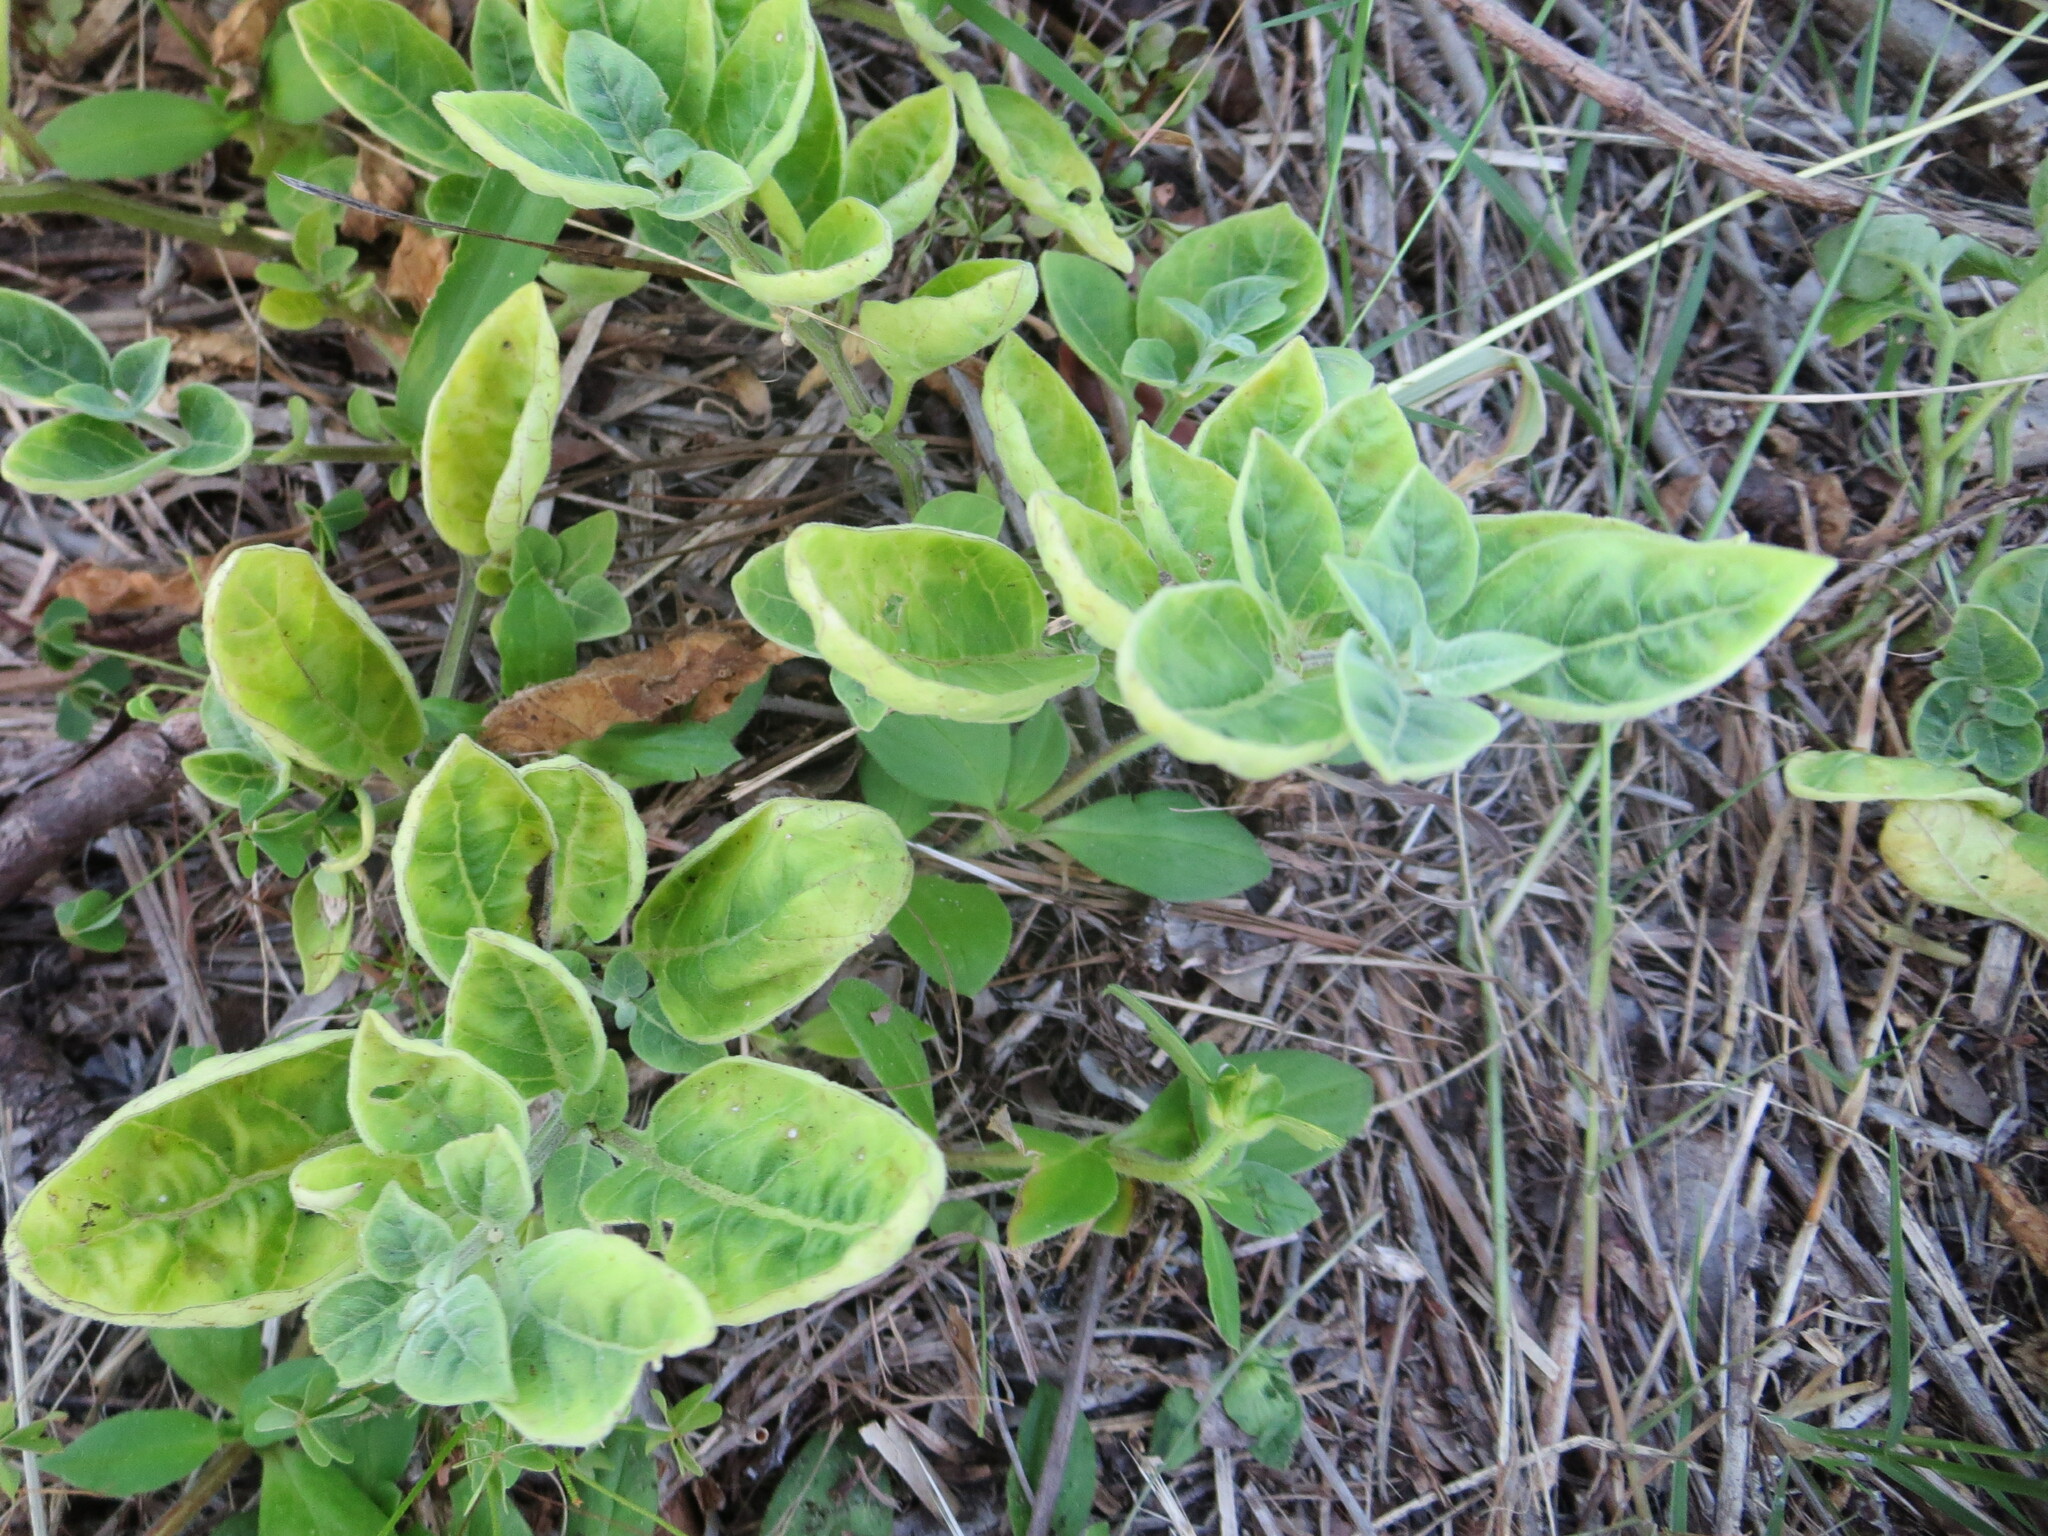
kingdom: Plantae
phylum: Tracheophyta
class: Magnoliopsida
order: Solanales
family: Solanaceae
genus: Physalis
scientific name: Physalis walteri
